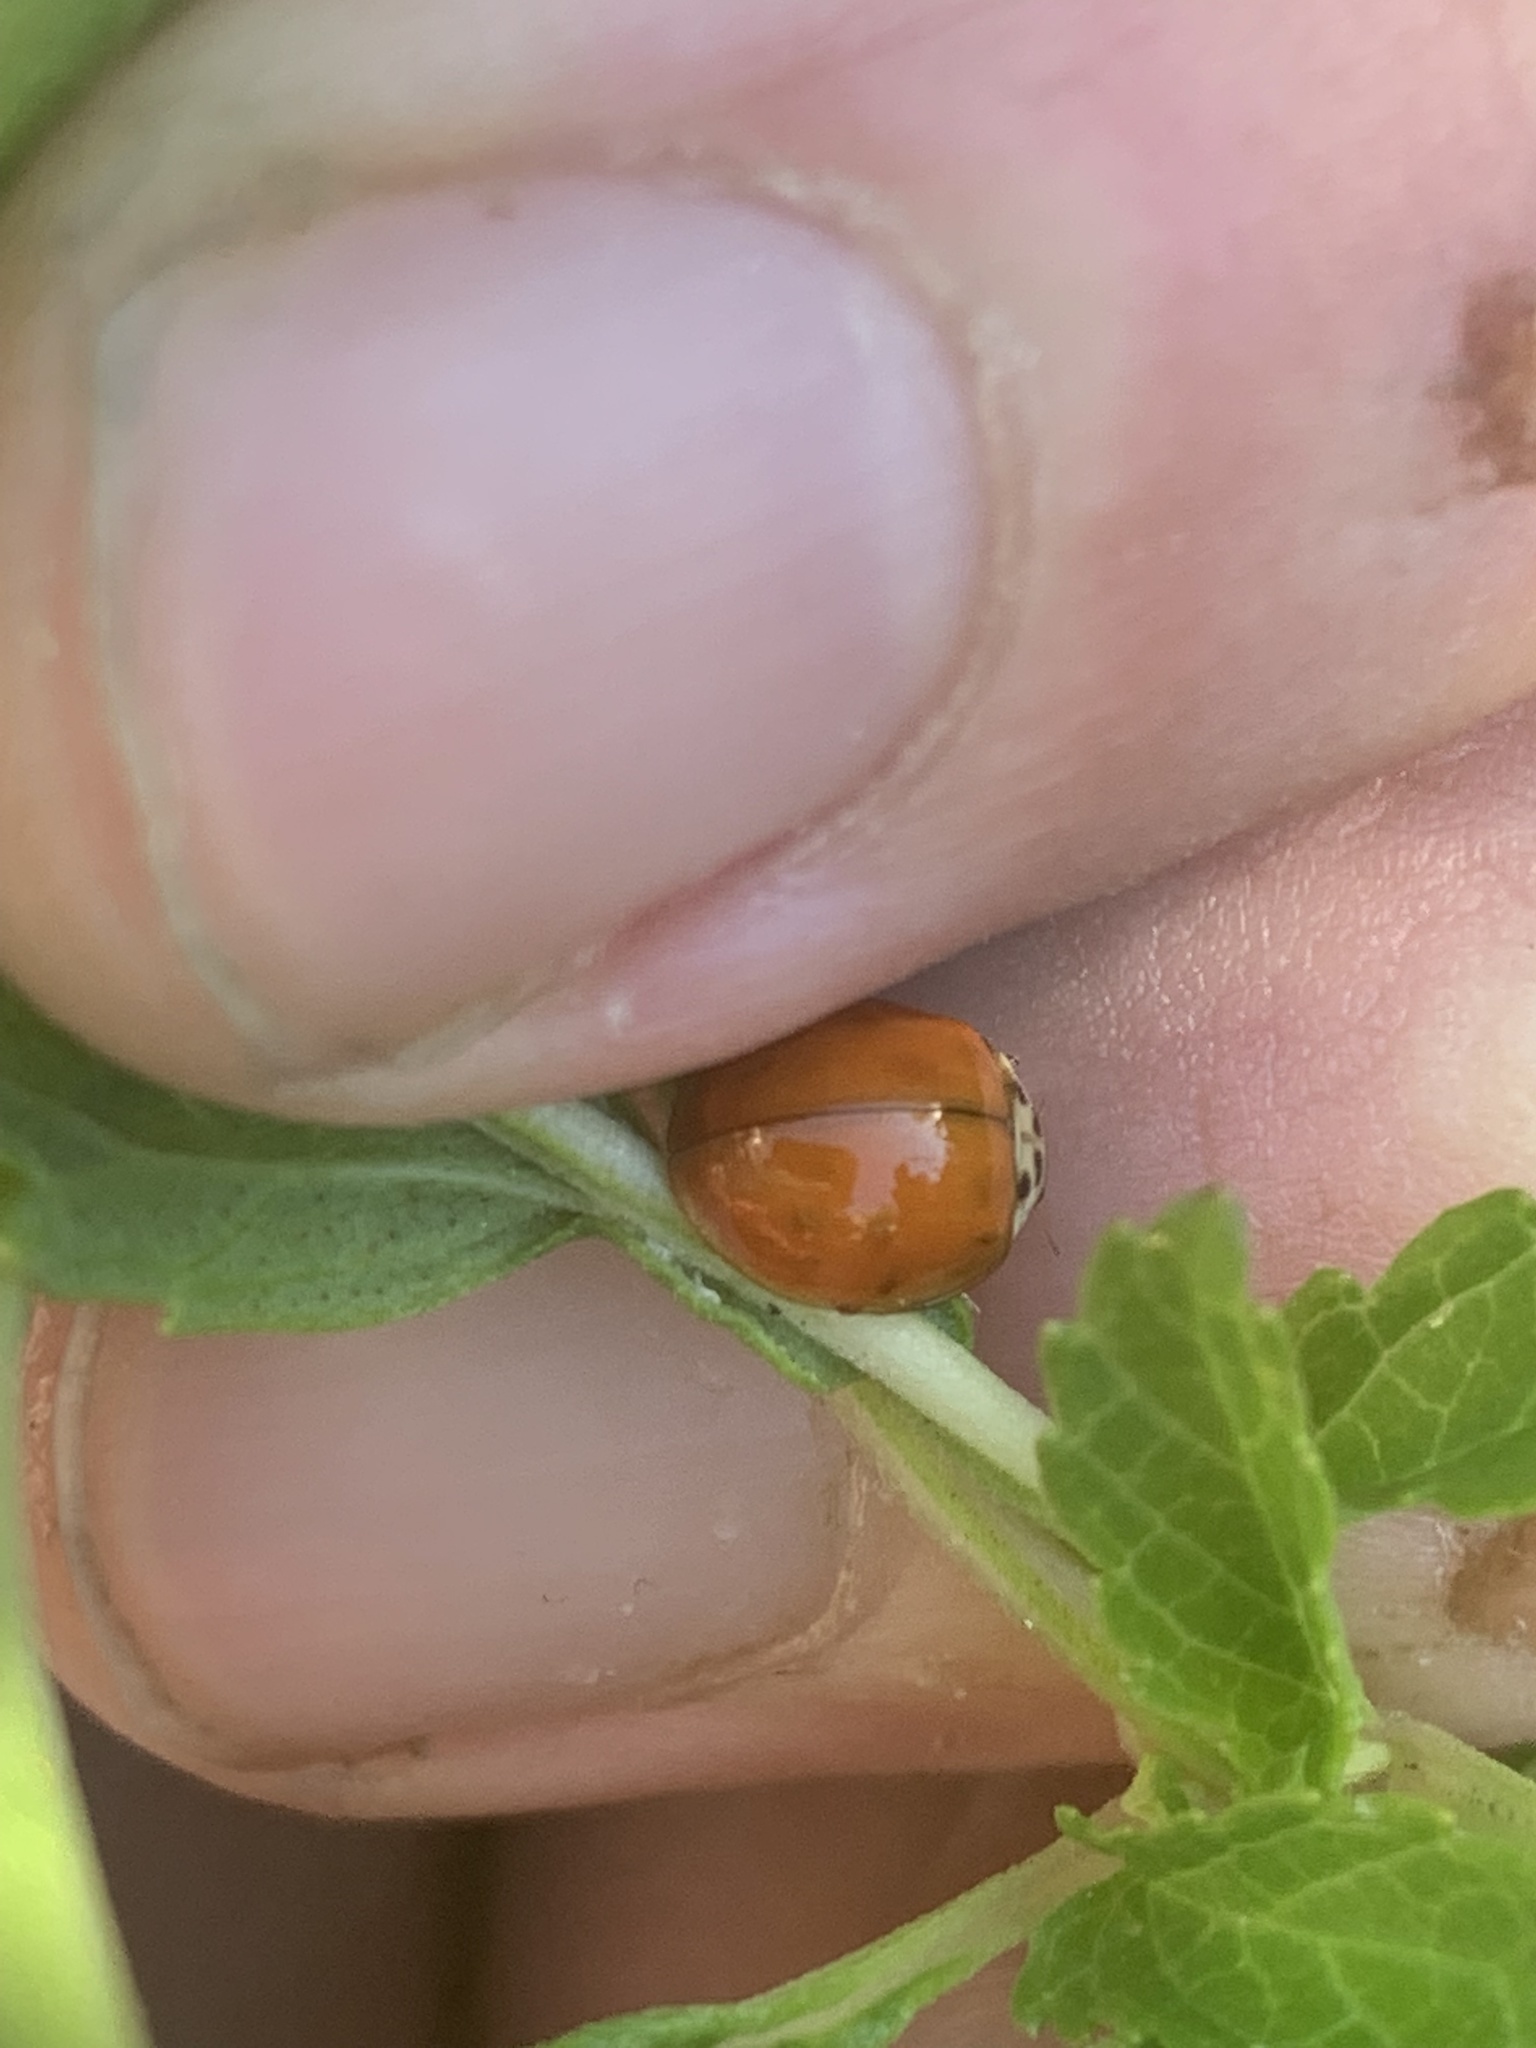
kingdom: Animalia
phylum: Arthropoda
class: Insecta
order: Coleoptera
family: Coccinellidae
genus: Harmonia
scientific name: Harmonia axyridis
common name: Harlequin ladybird
